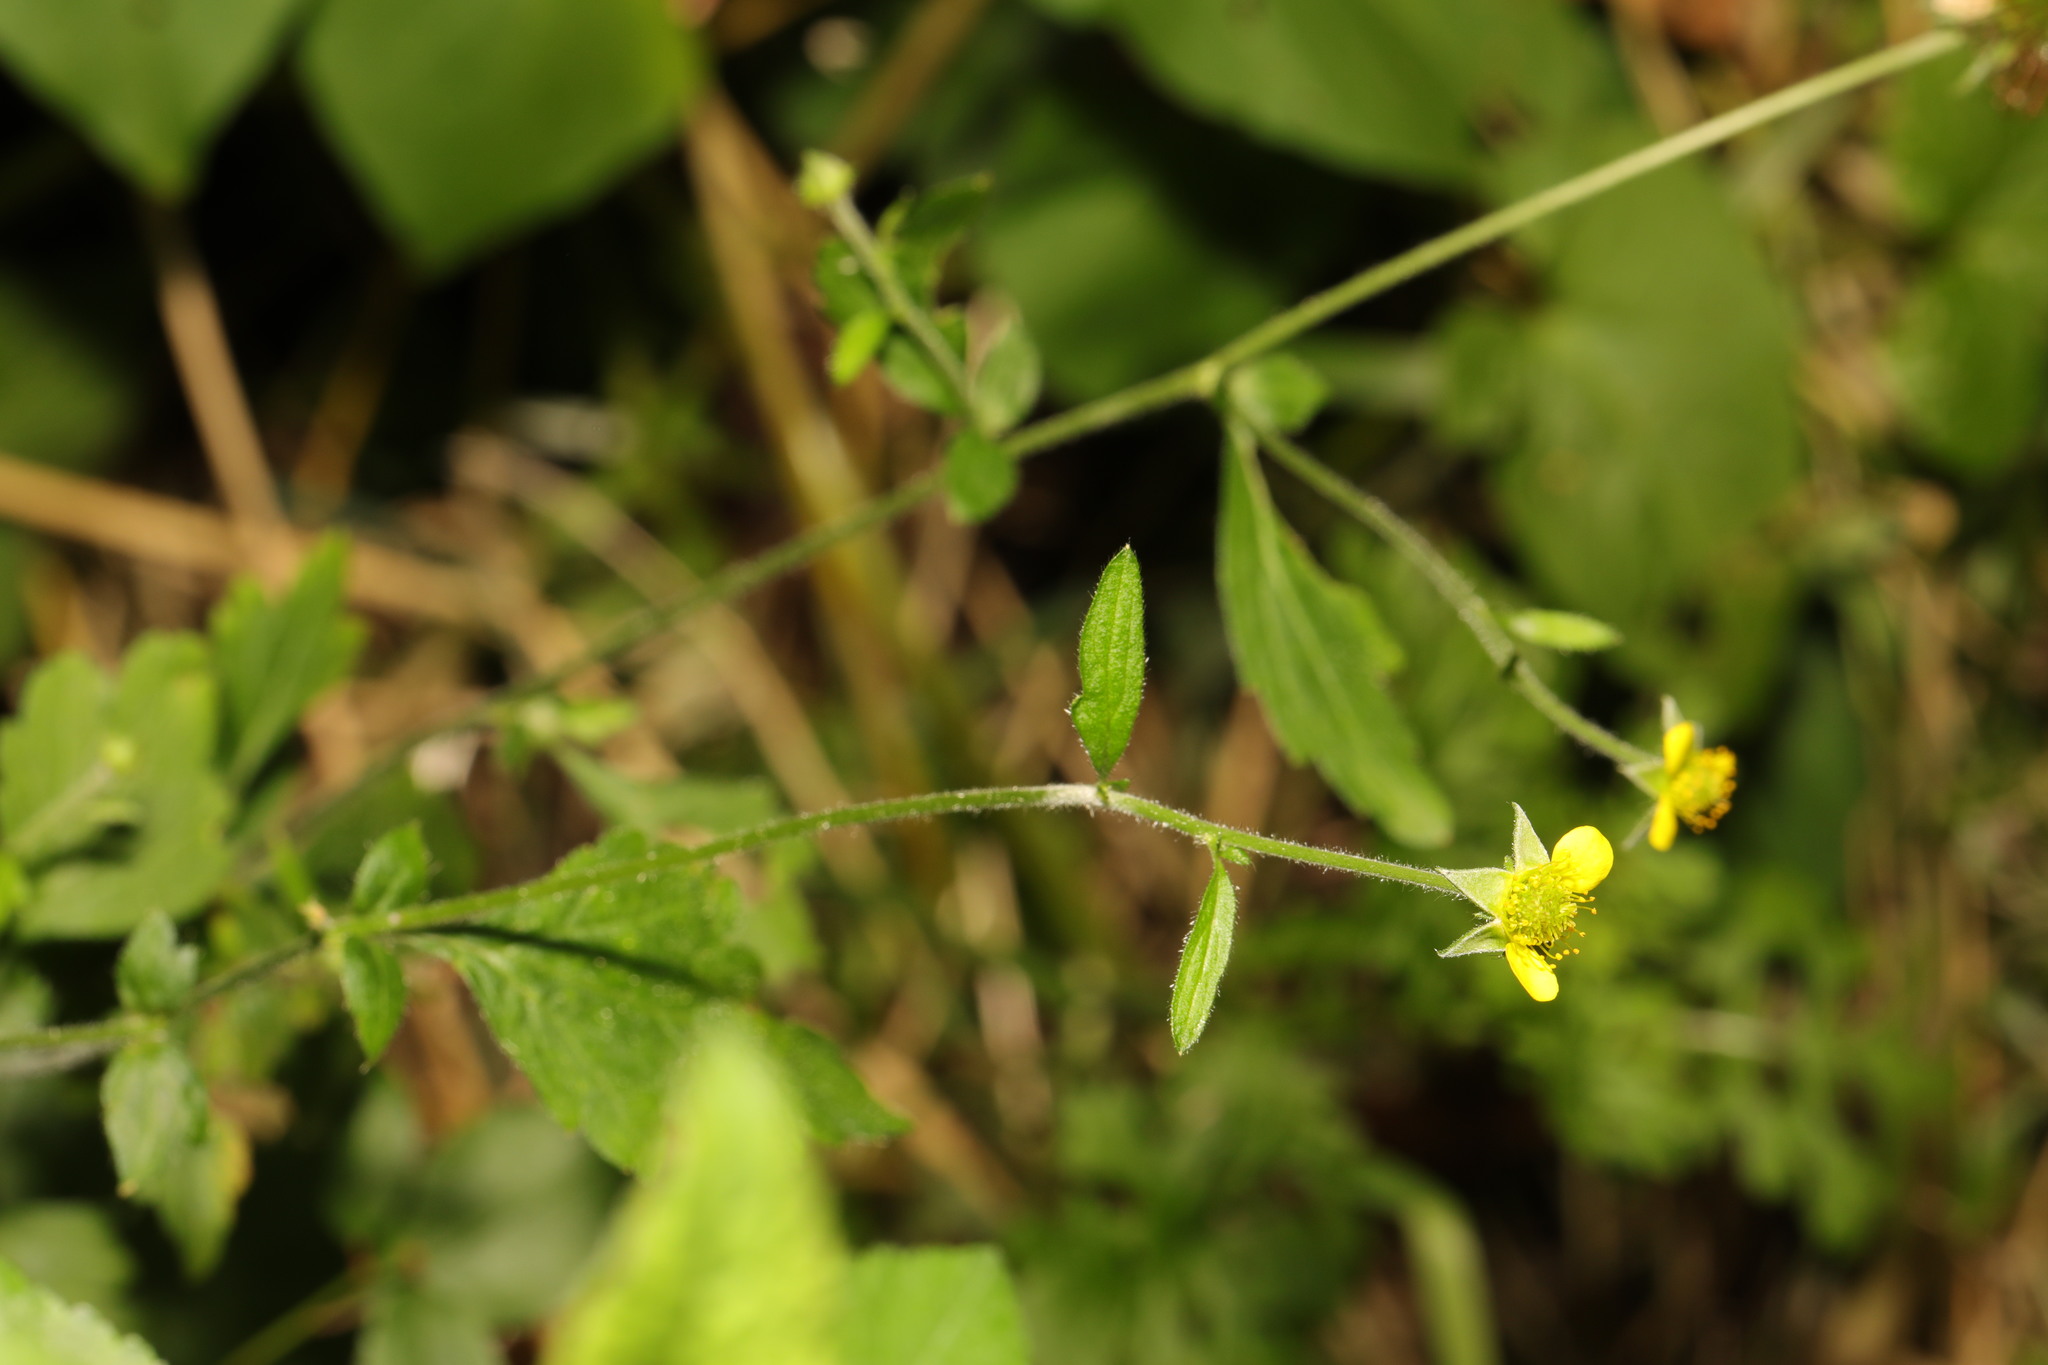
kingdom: Plantae
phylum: Tracheophyta
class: Magnoliopsida
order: Rosales
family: Rosaceae
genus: Geum
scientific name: Geum urbanum
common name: Wood avens
